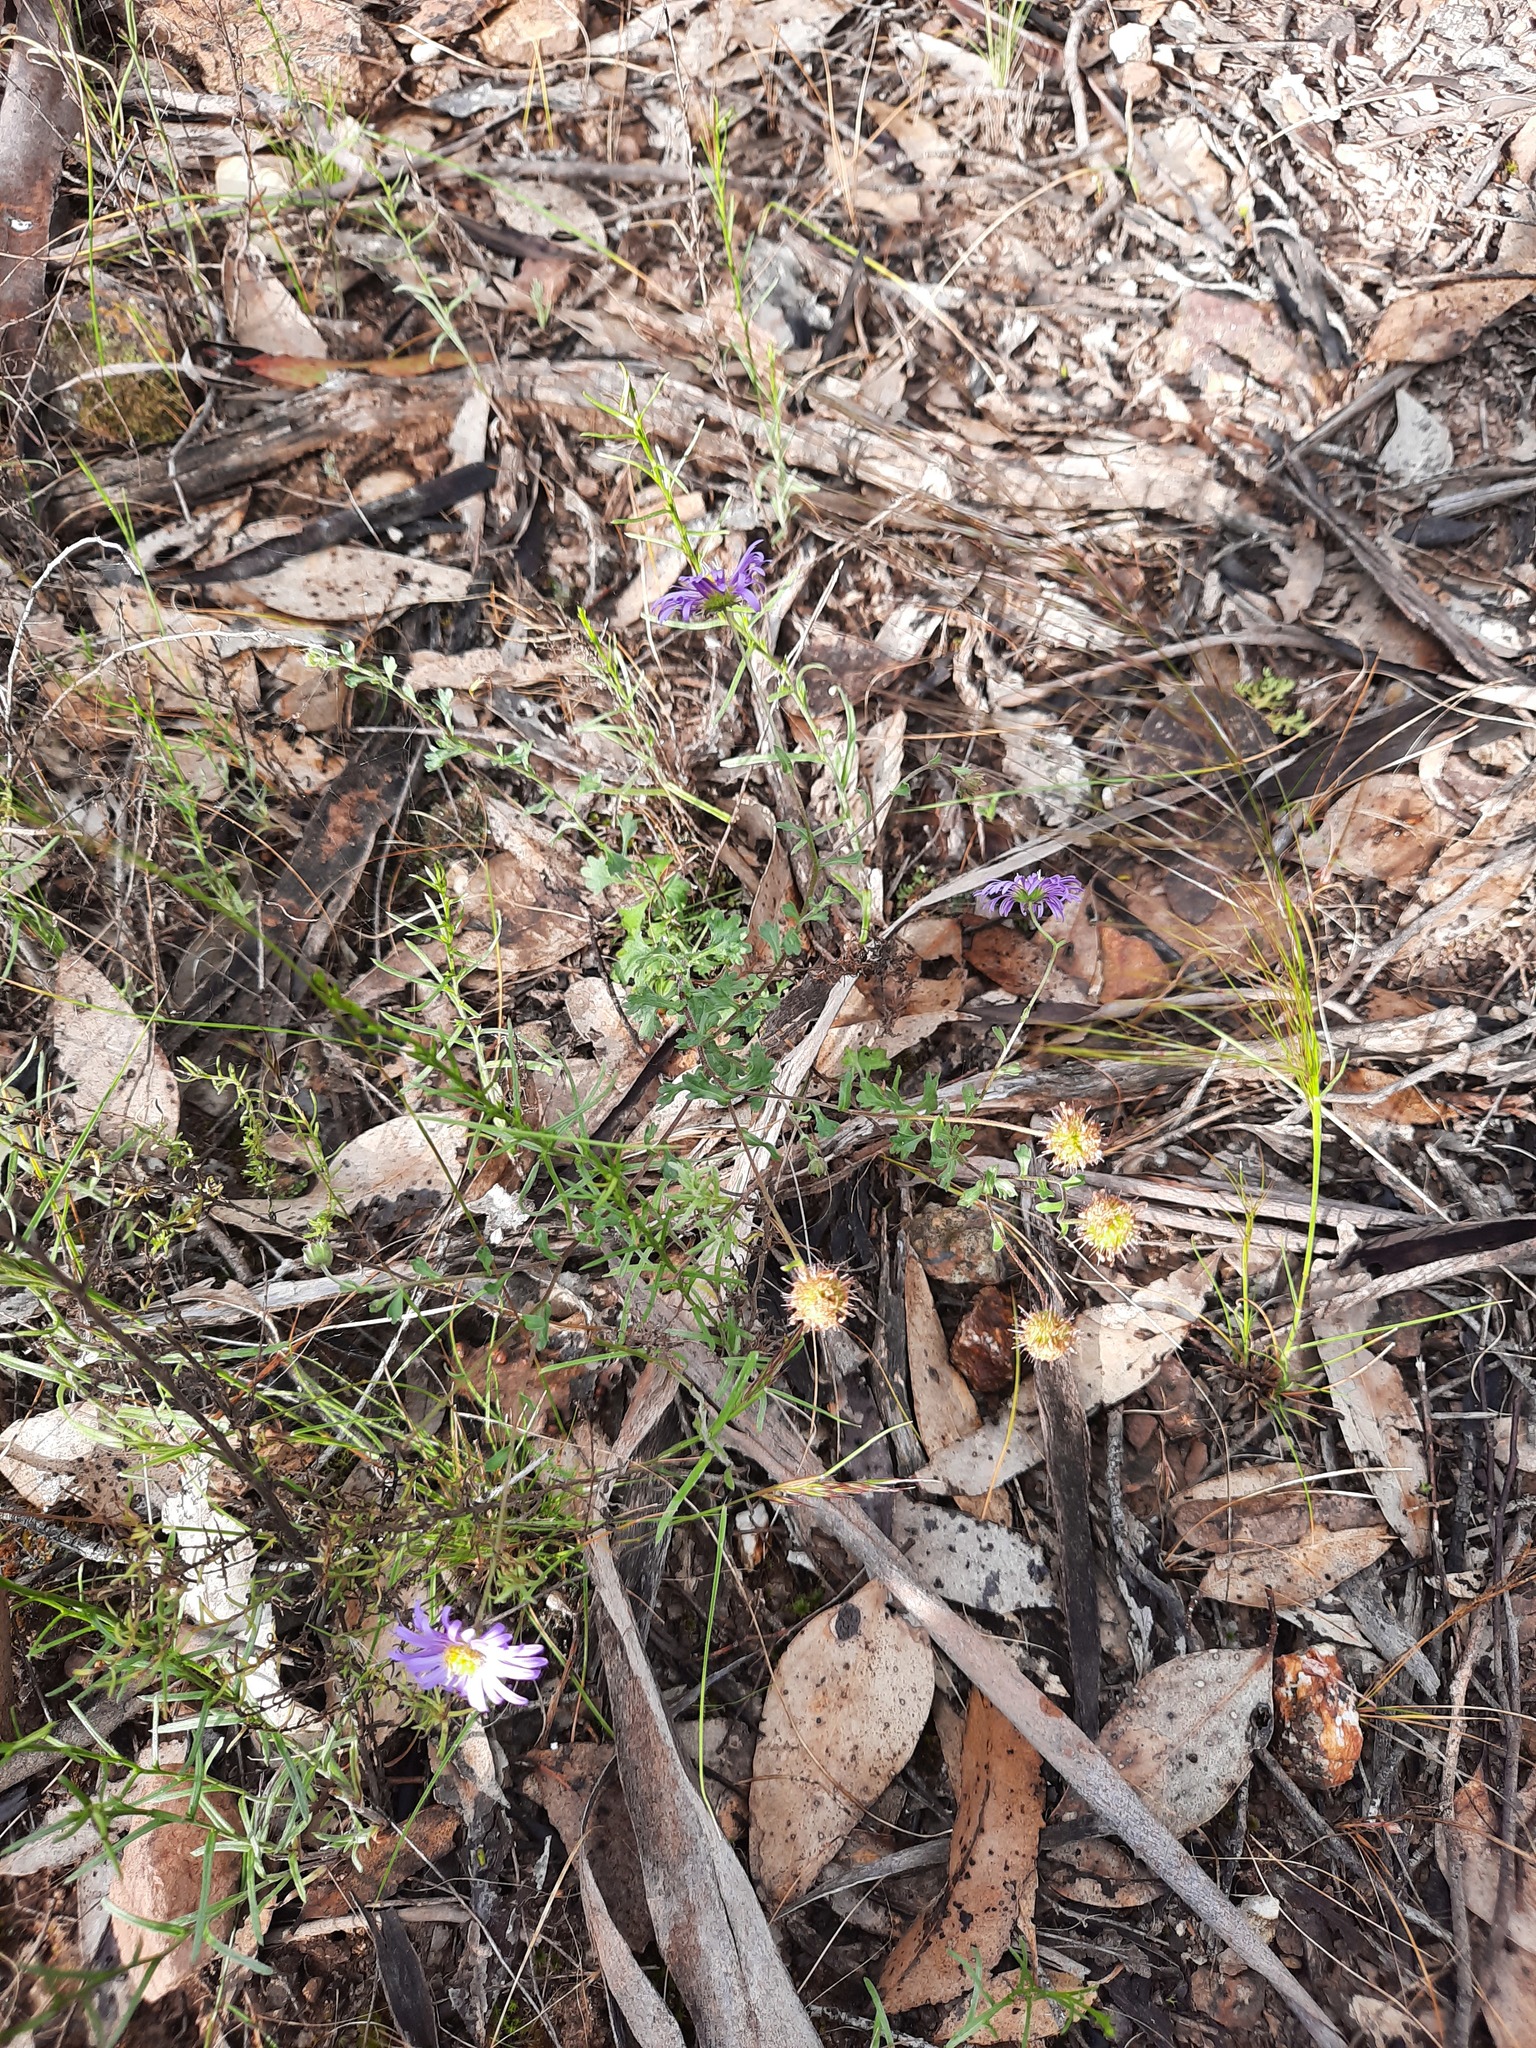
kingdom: Plantae
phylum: Tracheophyta
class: Magnoliopsida
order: Asterales
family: Asteraceae
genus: Calotis
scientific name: Calotis cuneifolia
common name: Bur-daisy
